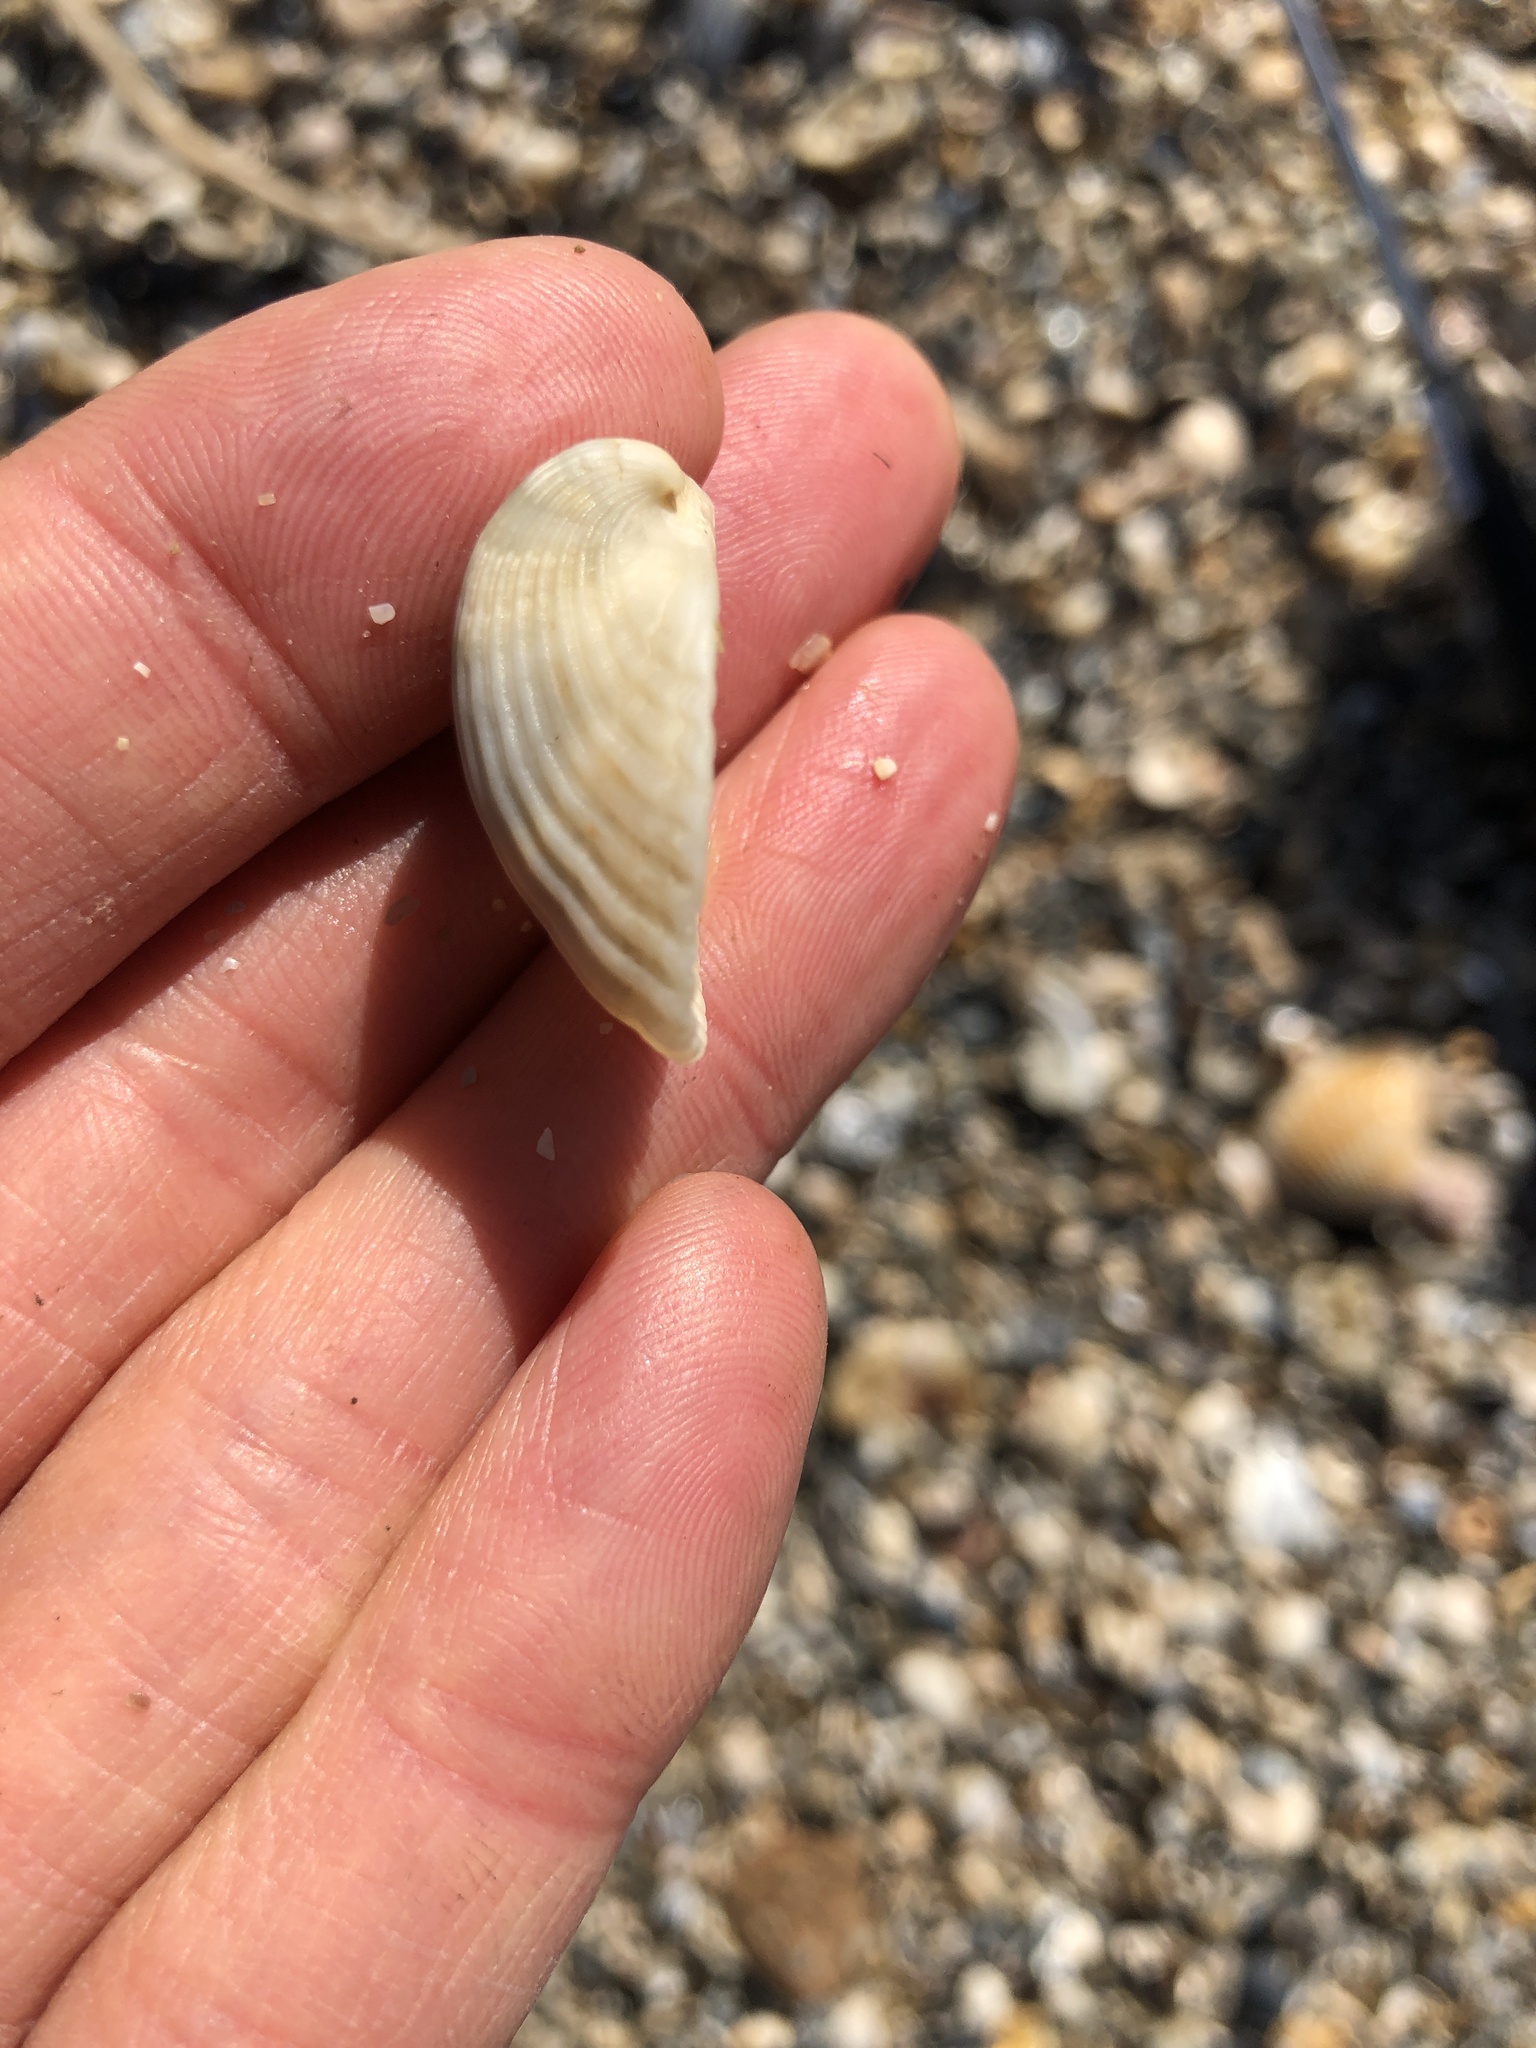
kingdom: Animalia
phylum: Mollusca
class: Bivalvia
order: Arcida
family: Noetiidae
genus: Noetia
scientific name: Noetia ponderosa
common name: Ponderous ark
